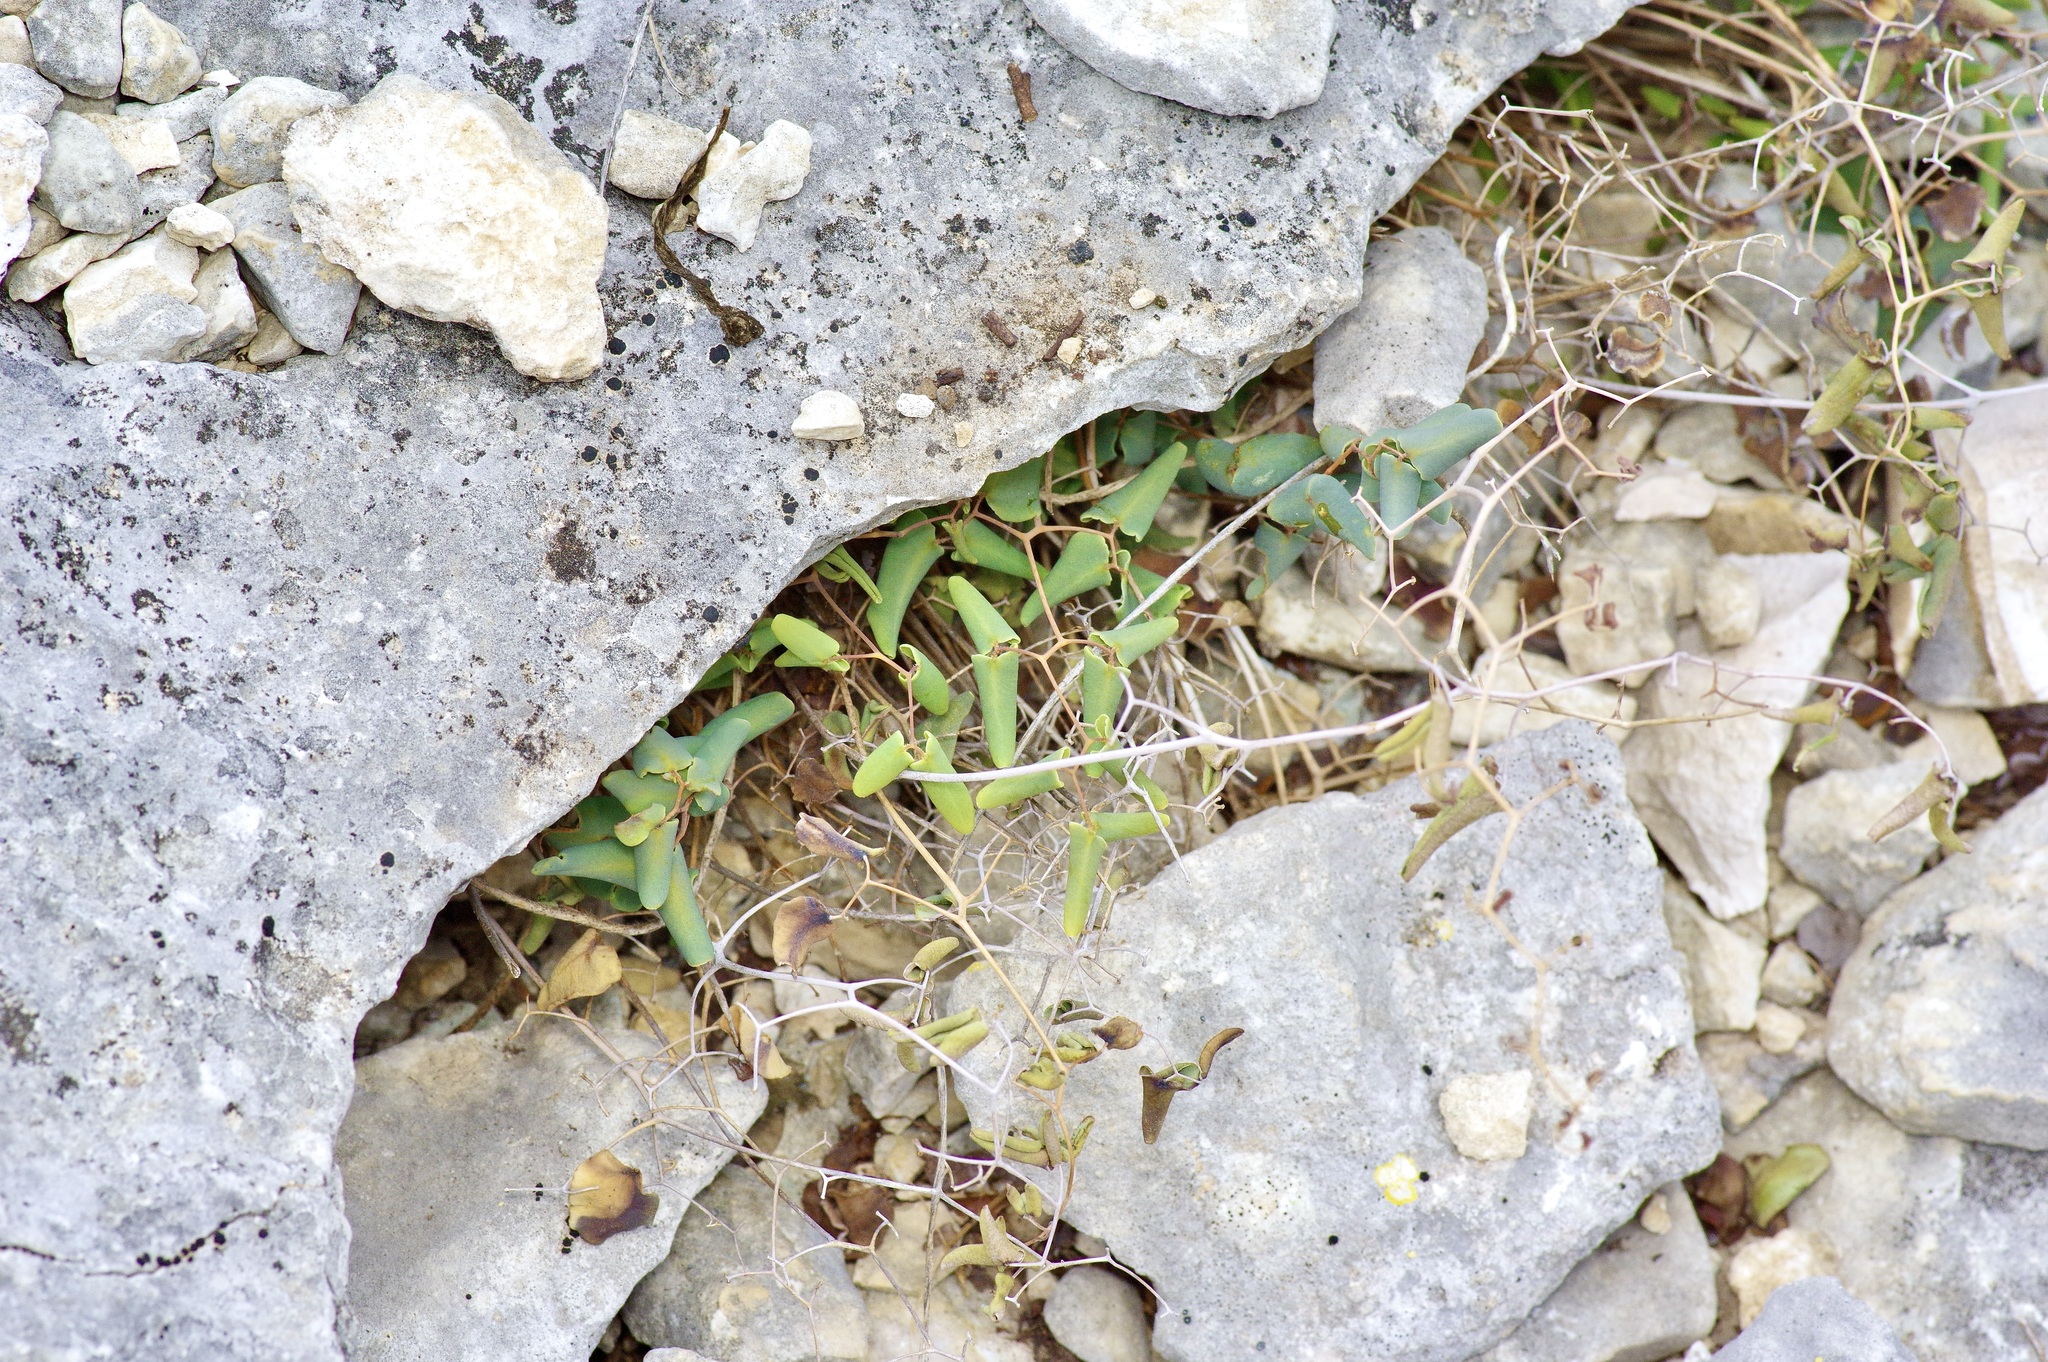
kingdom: Plantae
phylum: Tracheophyta
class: Polypodiopsida
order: Polypodiales
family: Pteridaceae
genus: Pellaea
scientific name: Pellaea ovata
